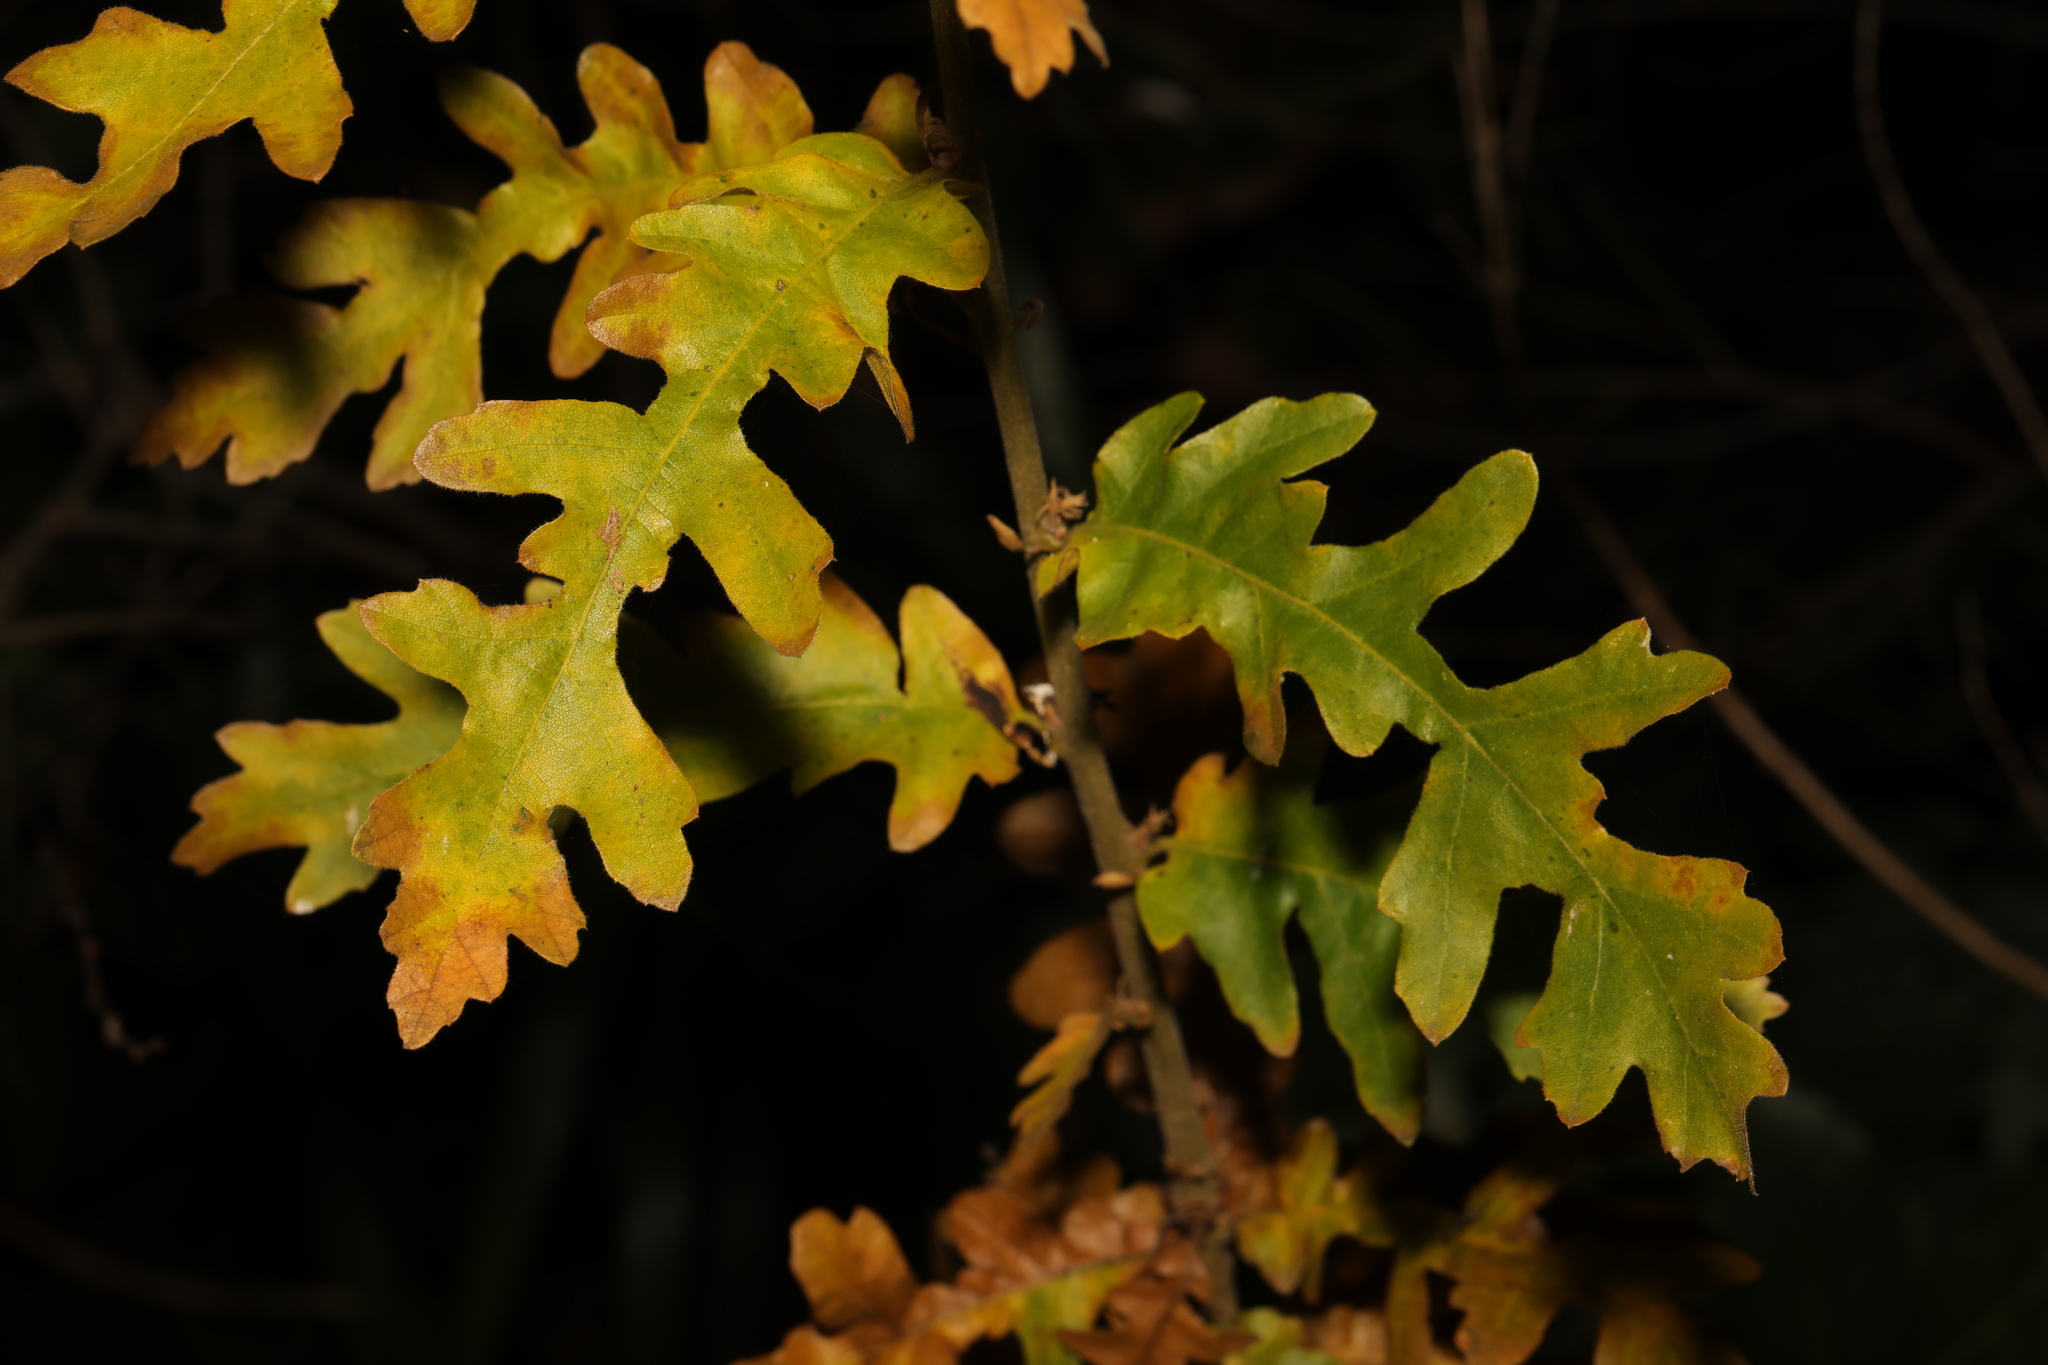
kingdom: Plantae
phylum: Tracheophyta
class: Magnoliopsida
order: Fagales
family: Fagaceae
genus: Quercus
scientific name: Quercus cerris
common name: Turkey oak
